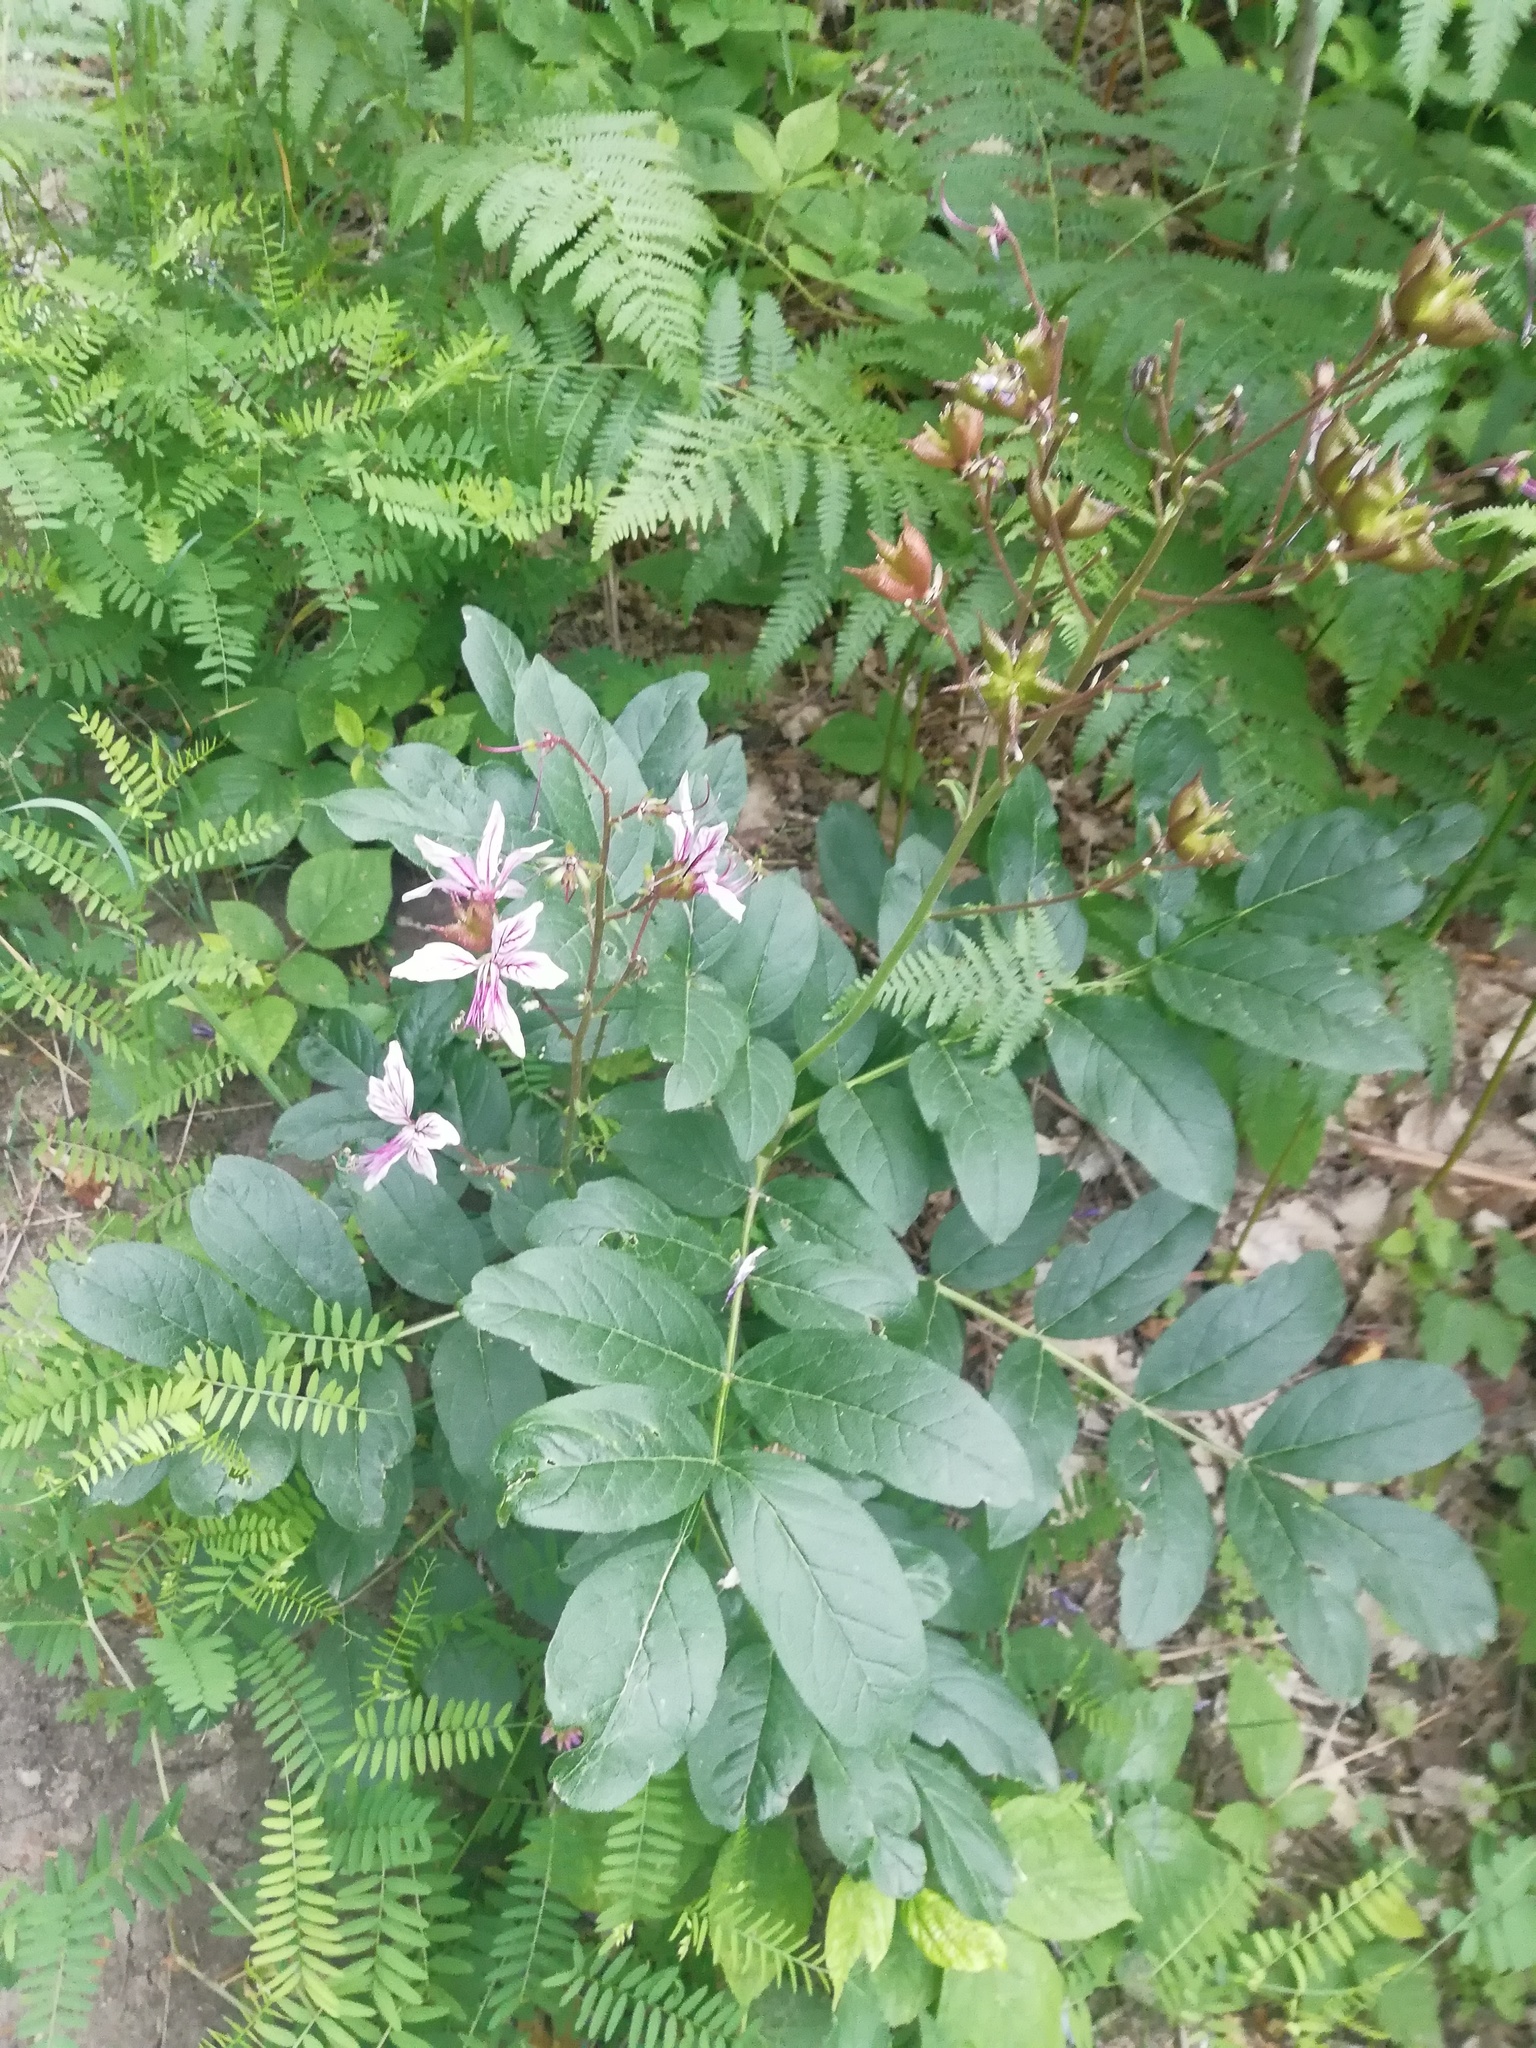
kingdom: Plantae
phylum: Tracheophyta
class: Magnoliopsida
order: Sapindales
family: Rutaceae
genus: Dictamnus
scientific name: Dictamnus albus
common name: Gasplant
